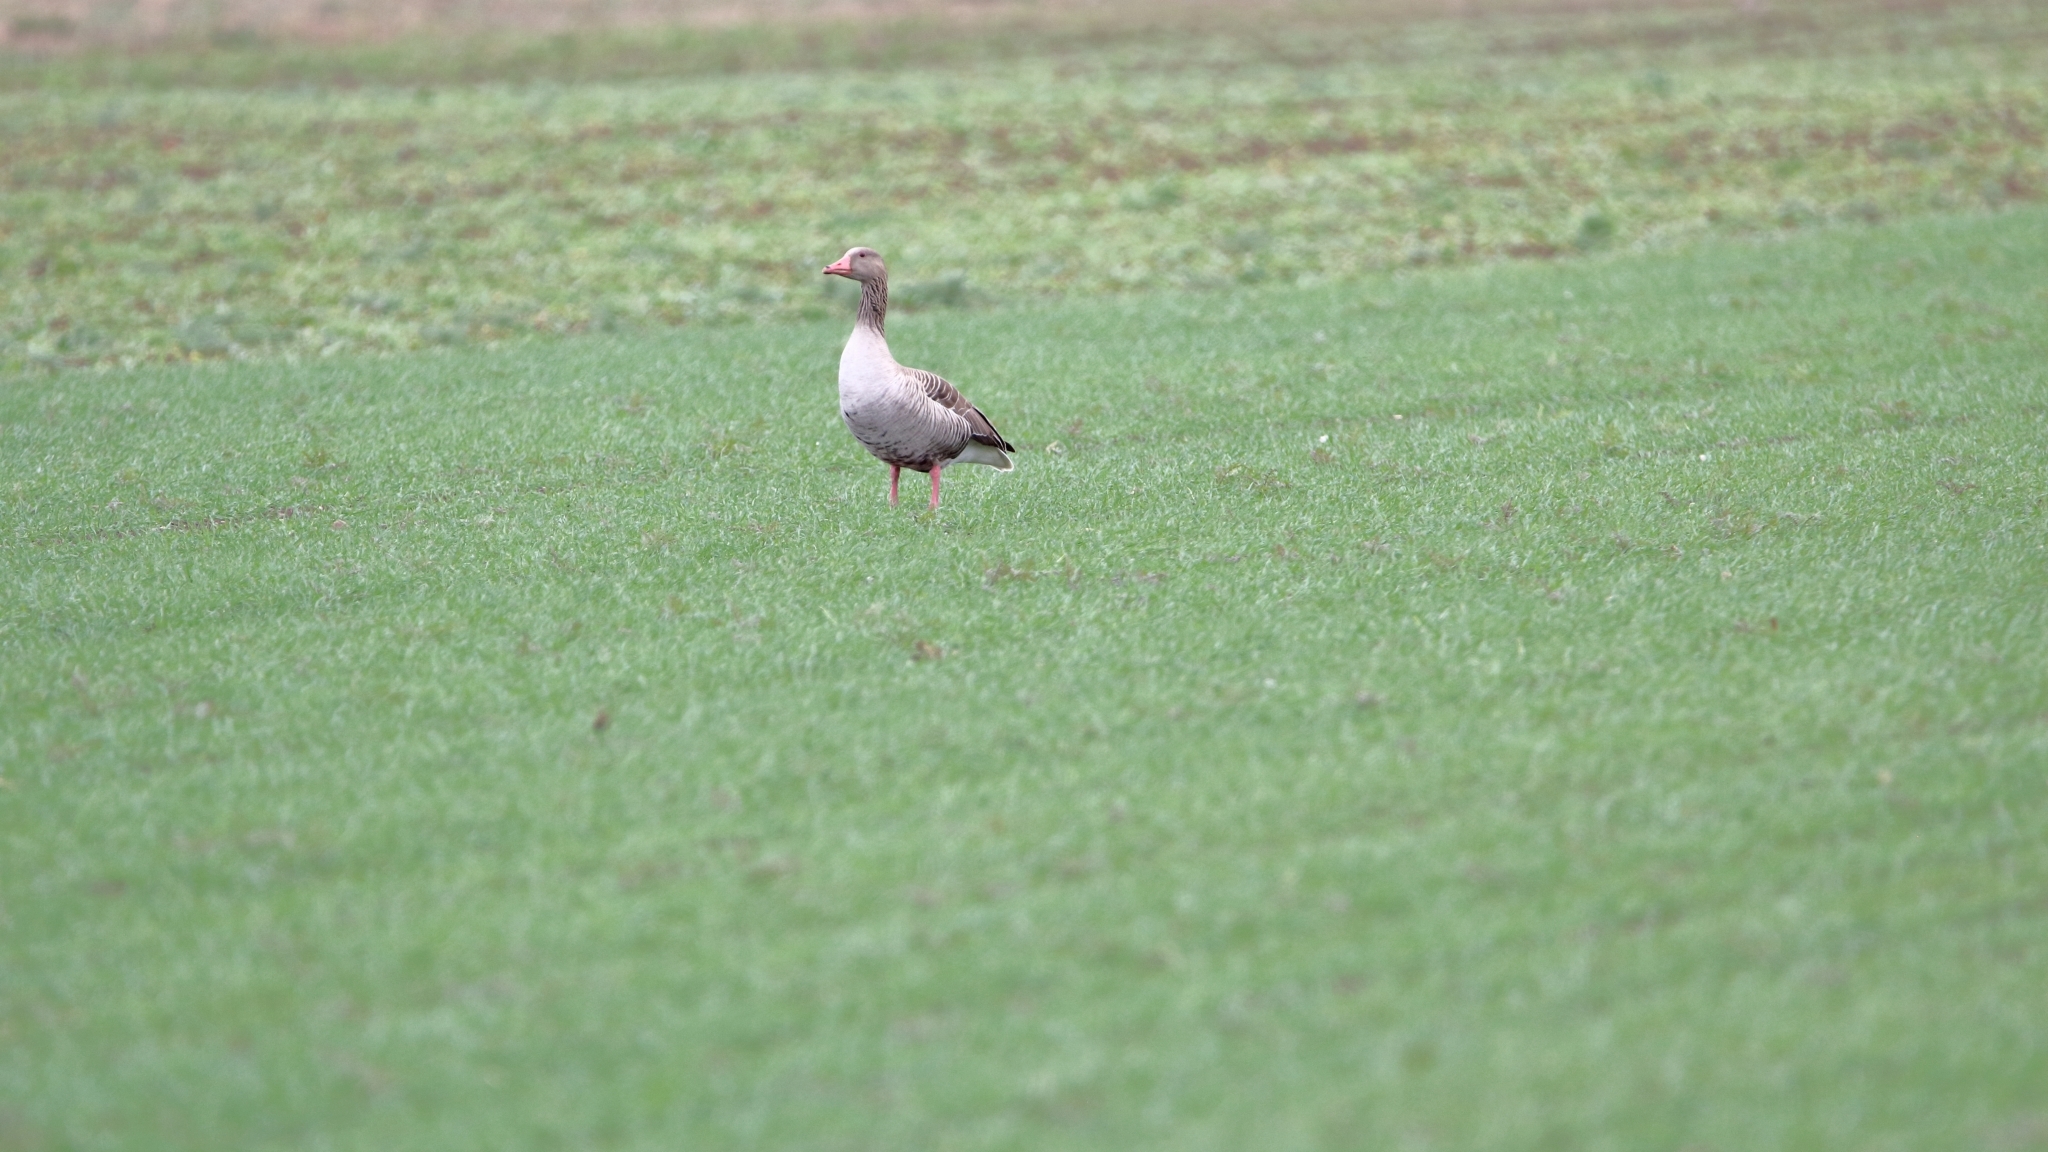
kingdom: Animalia
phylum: Chordata
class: Aves
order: Anseriformes
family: Anatidae
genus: Anser
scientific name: Anser anser
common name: Greylag goose
